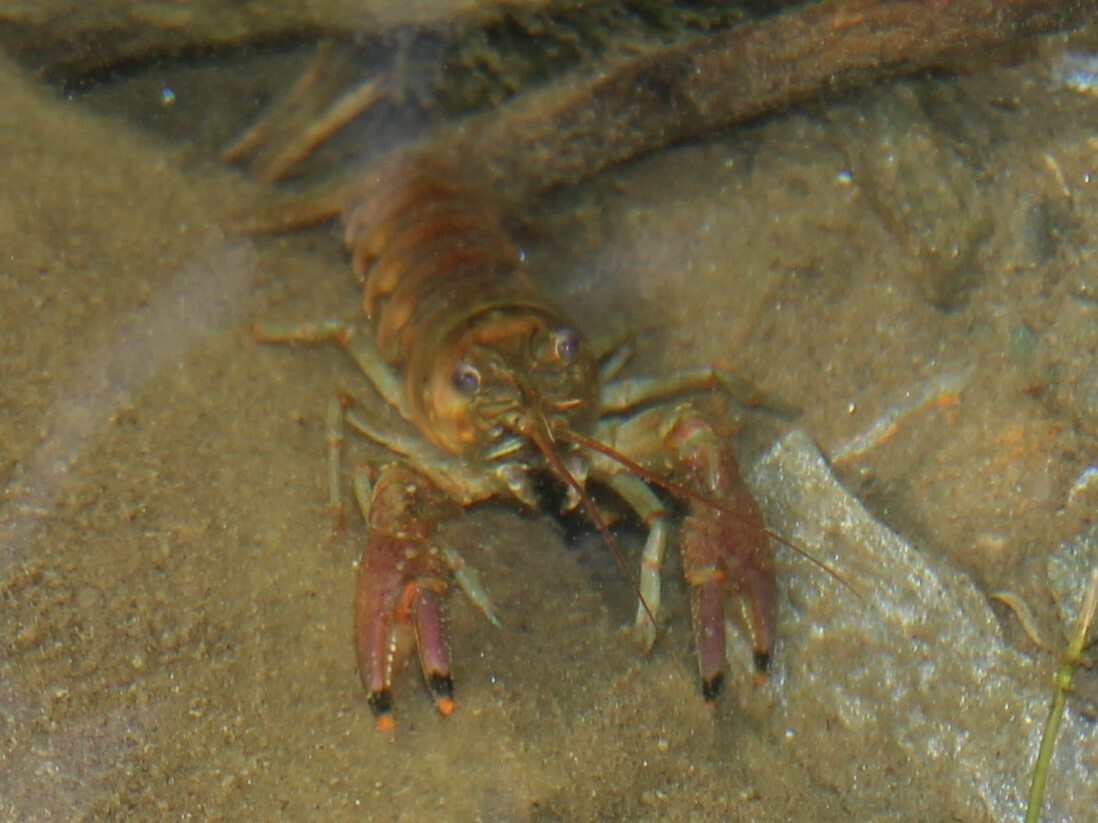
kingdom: Animalia
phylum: Arthropoda
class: Malacostraca
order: Decapoda
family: Cambaridae
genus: Faxonius
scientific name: Faxonius rusticus
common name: Rusty crayfish
